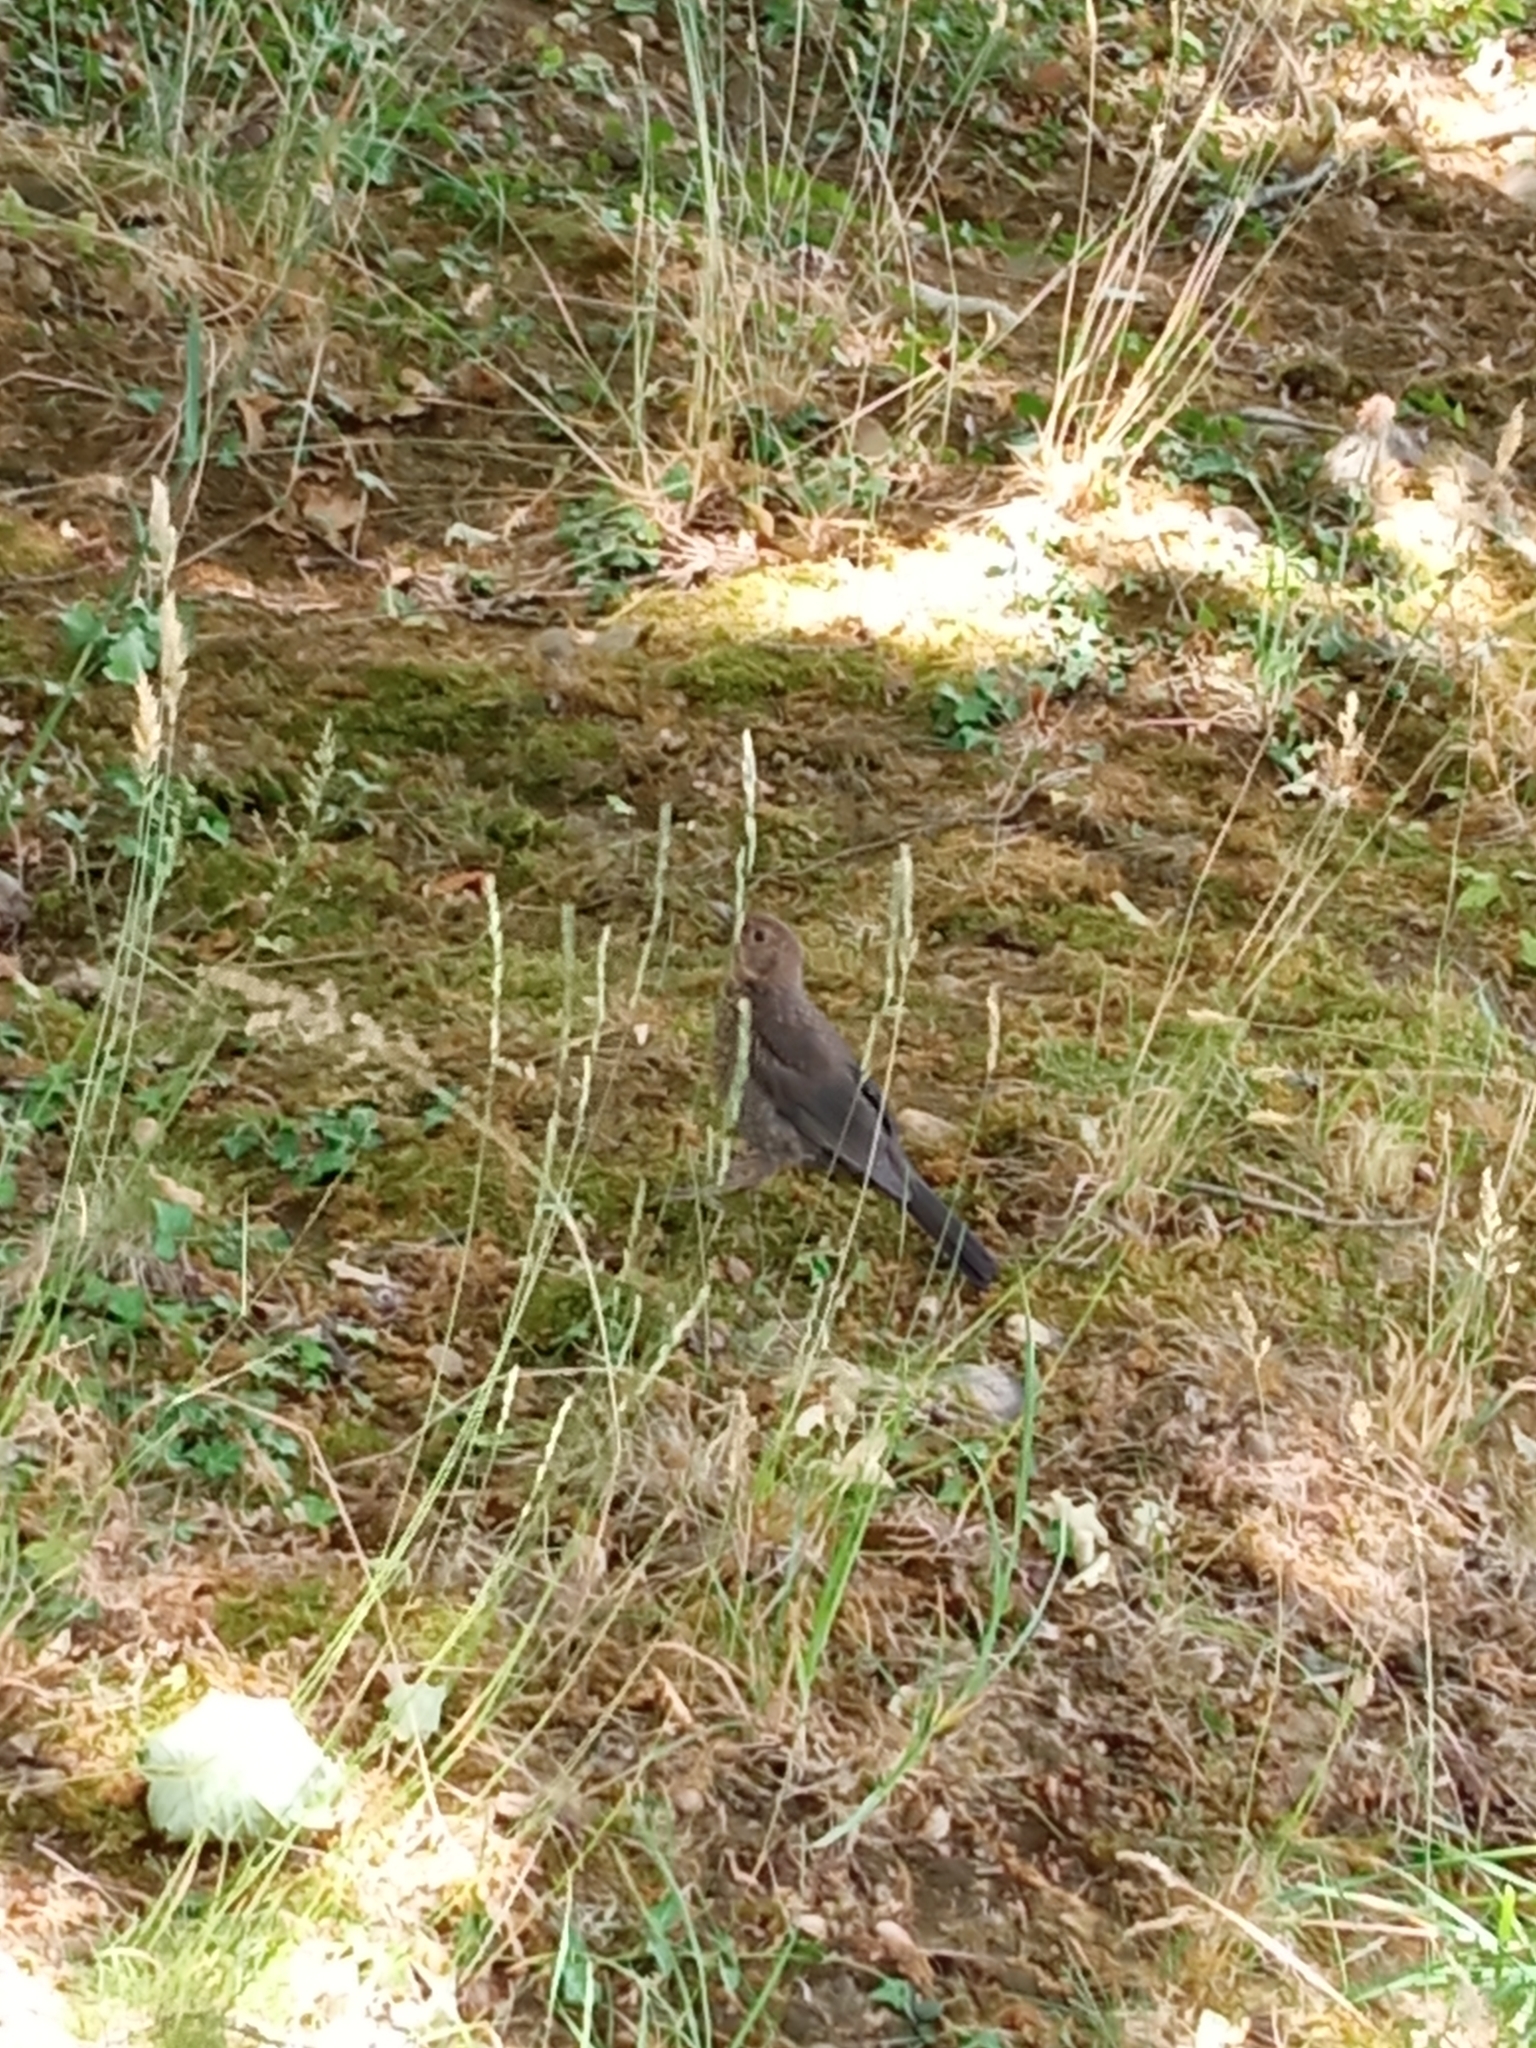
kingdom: Animalia
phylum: Chordata
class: Aves
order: Passeriformes
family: Turdidae
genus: Turdus
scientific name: Turdus merula
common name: Common blackbird
